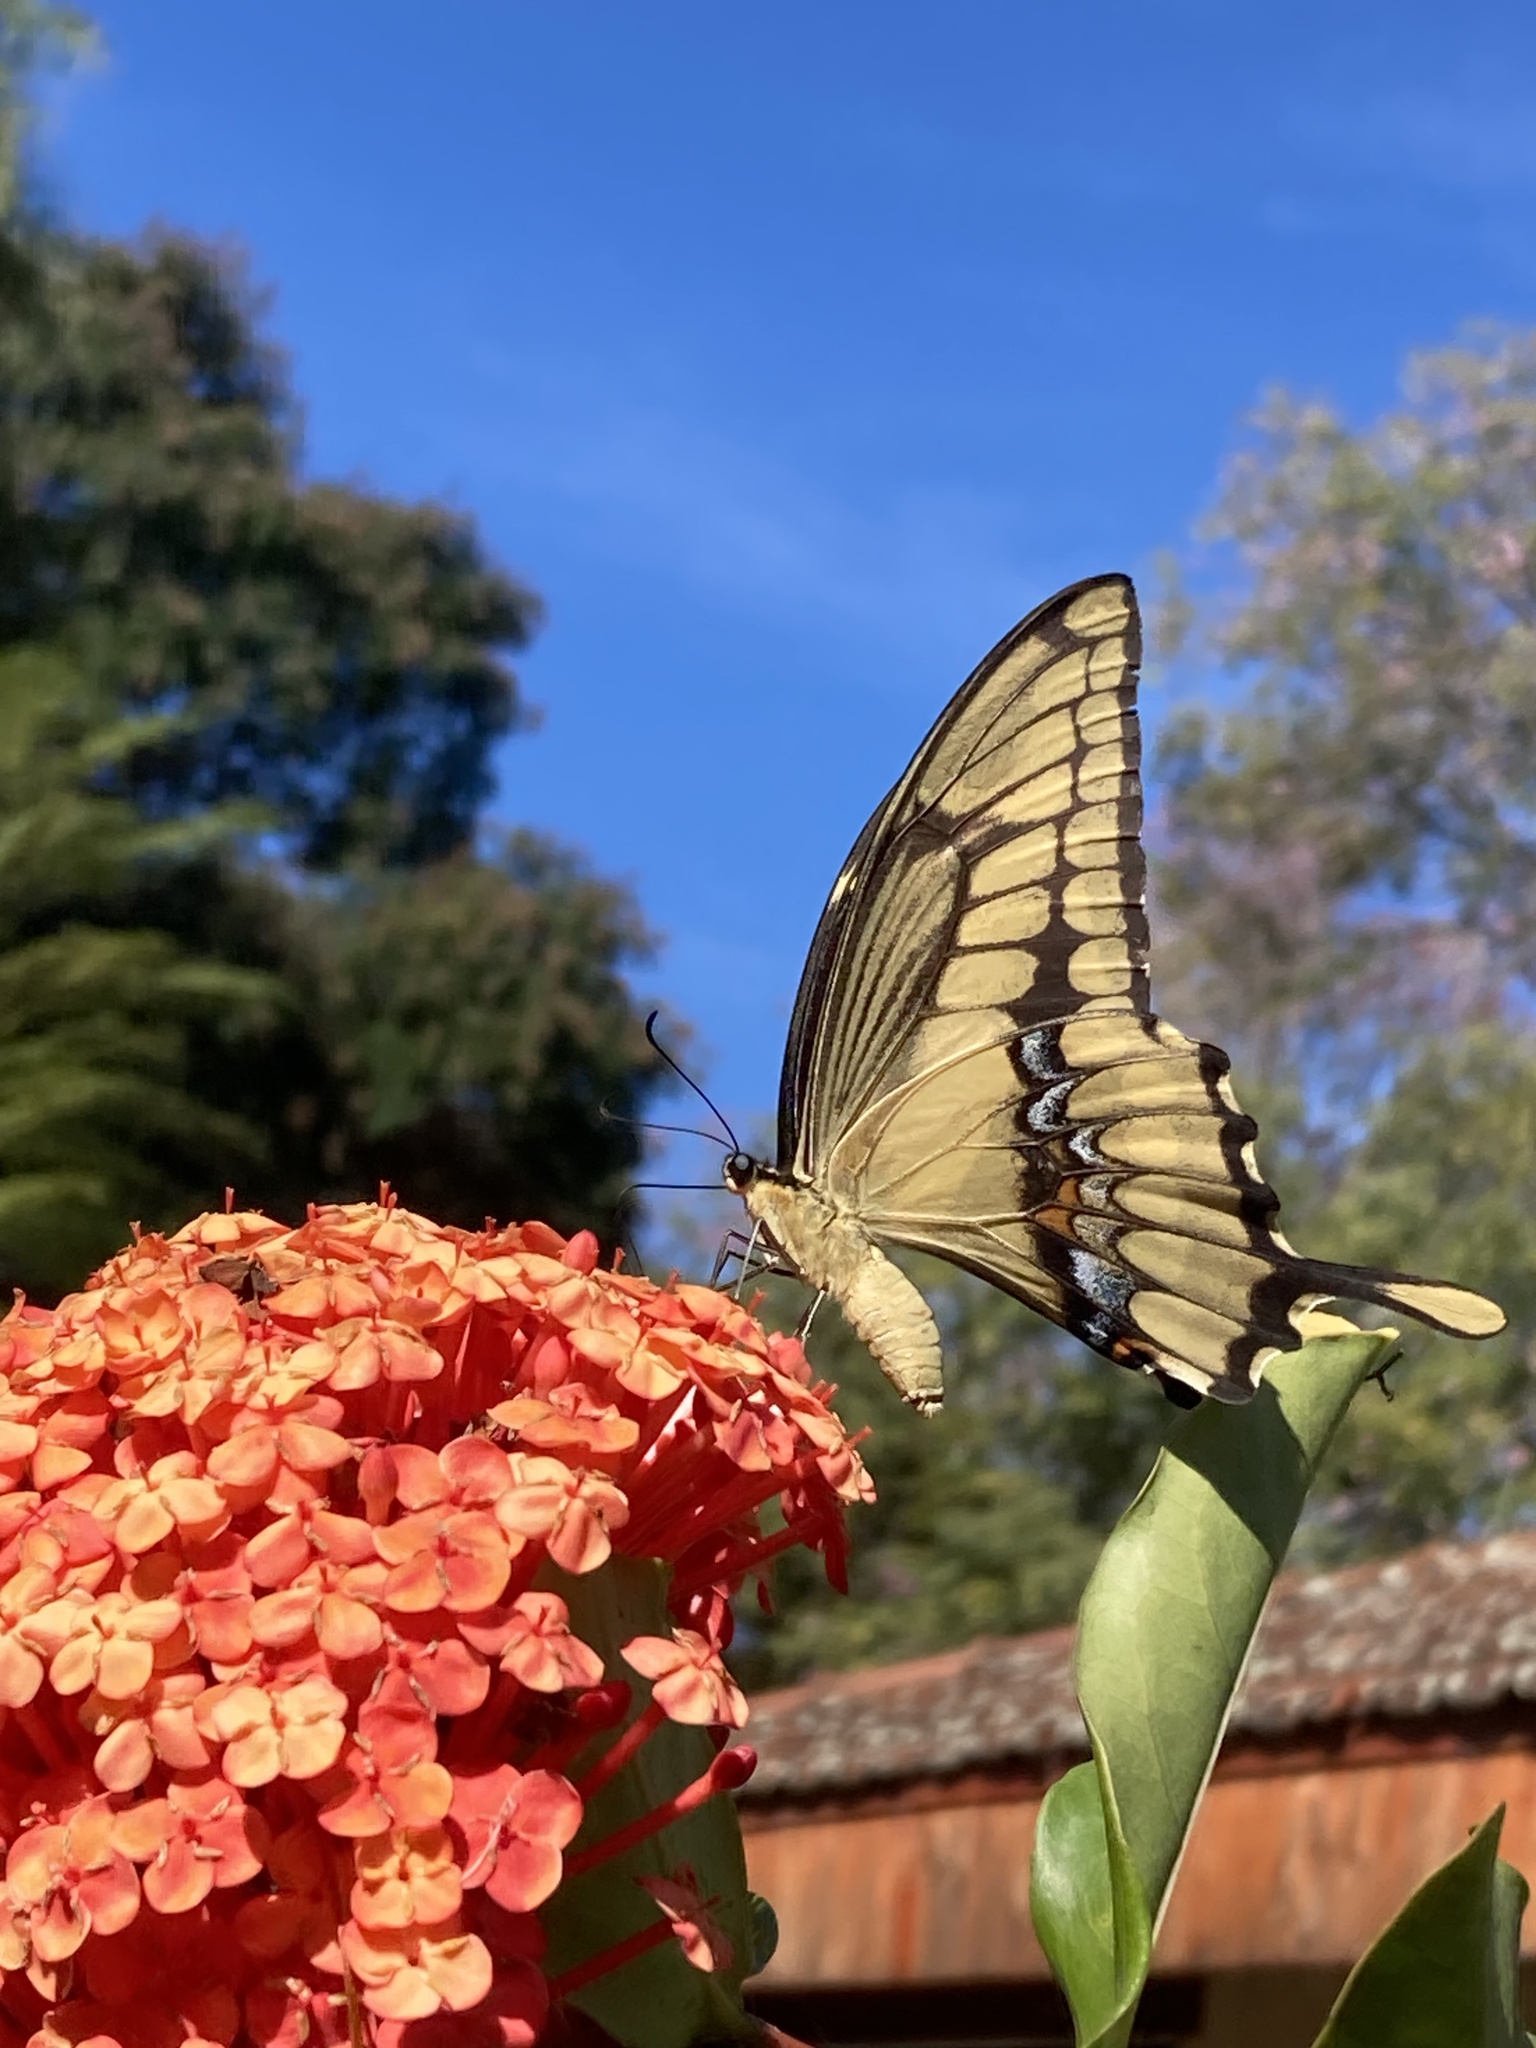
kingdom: Animalia
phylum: Arthropoda
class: Insecta
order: Lepidoptera
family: Papilionidae
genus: Papilio
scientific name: Papilio thoas
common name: King swallowtail
